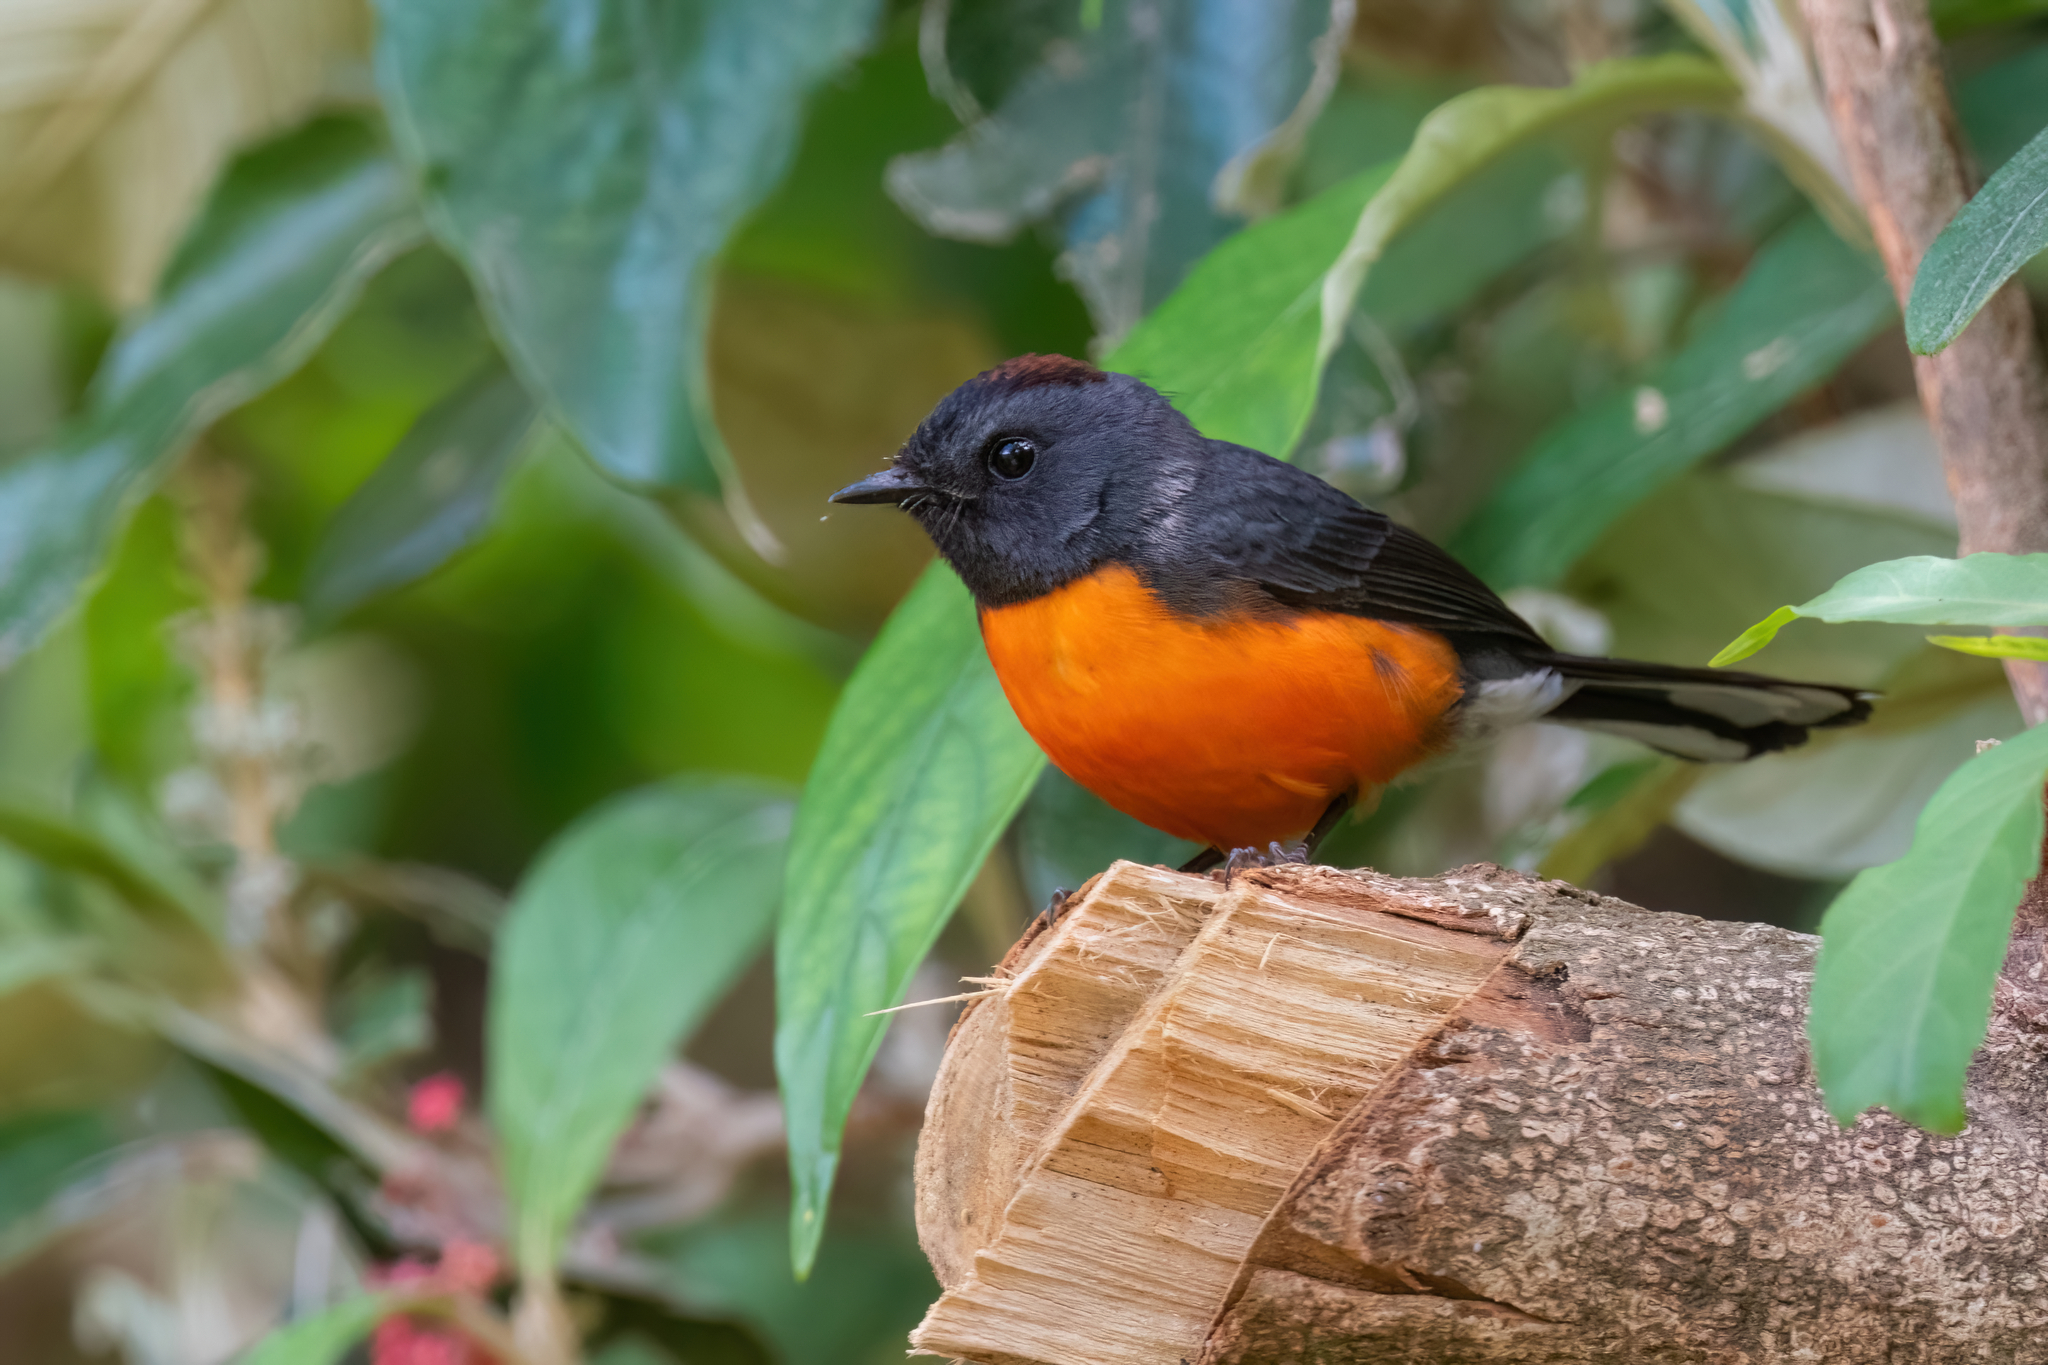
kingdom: Animalia
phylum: Chordata
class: Aves
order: Passeriformes
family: Parulidae
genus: Myioborus
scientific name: Myioborus miniatus
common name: Slate-throated redstart
